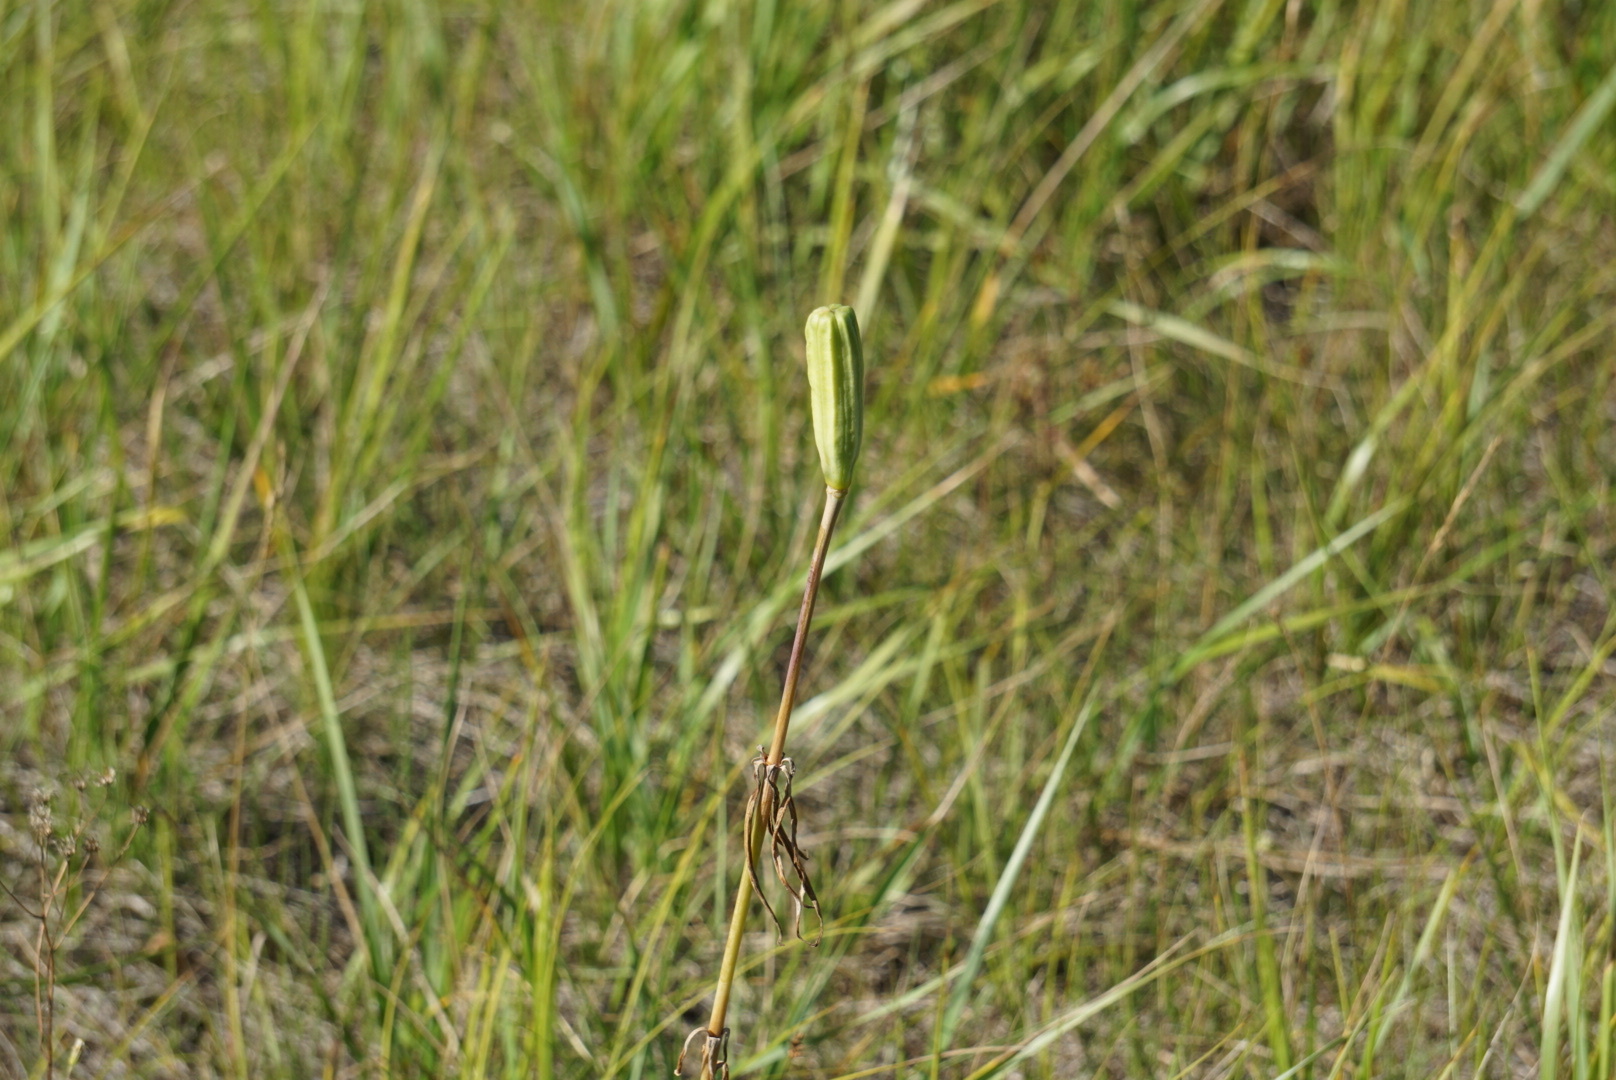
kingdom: Plantae
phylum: Tracheophyta
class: Liliopsida
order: Liliales
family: Liliaceae
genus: Lilium
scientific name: Lilium philadelphicum
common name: Red lily
